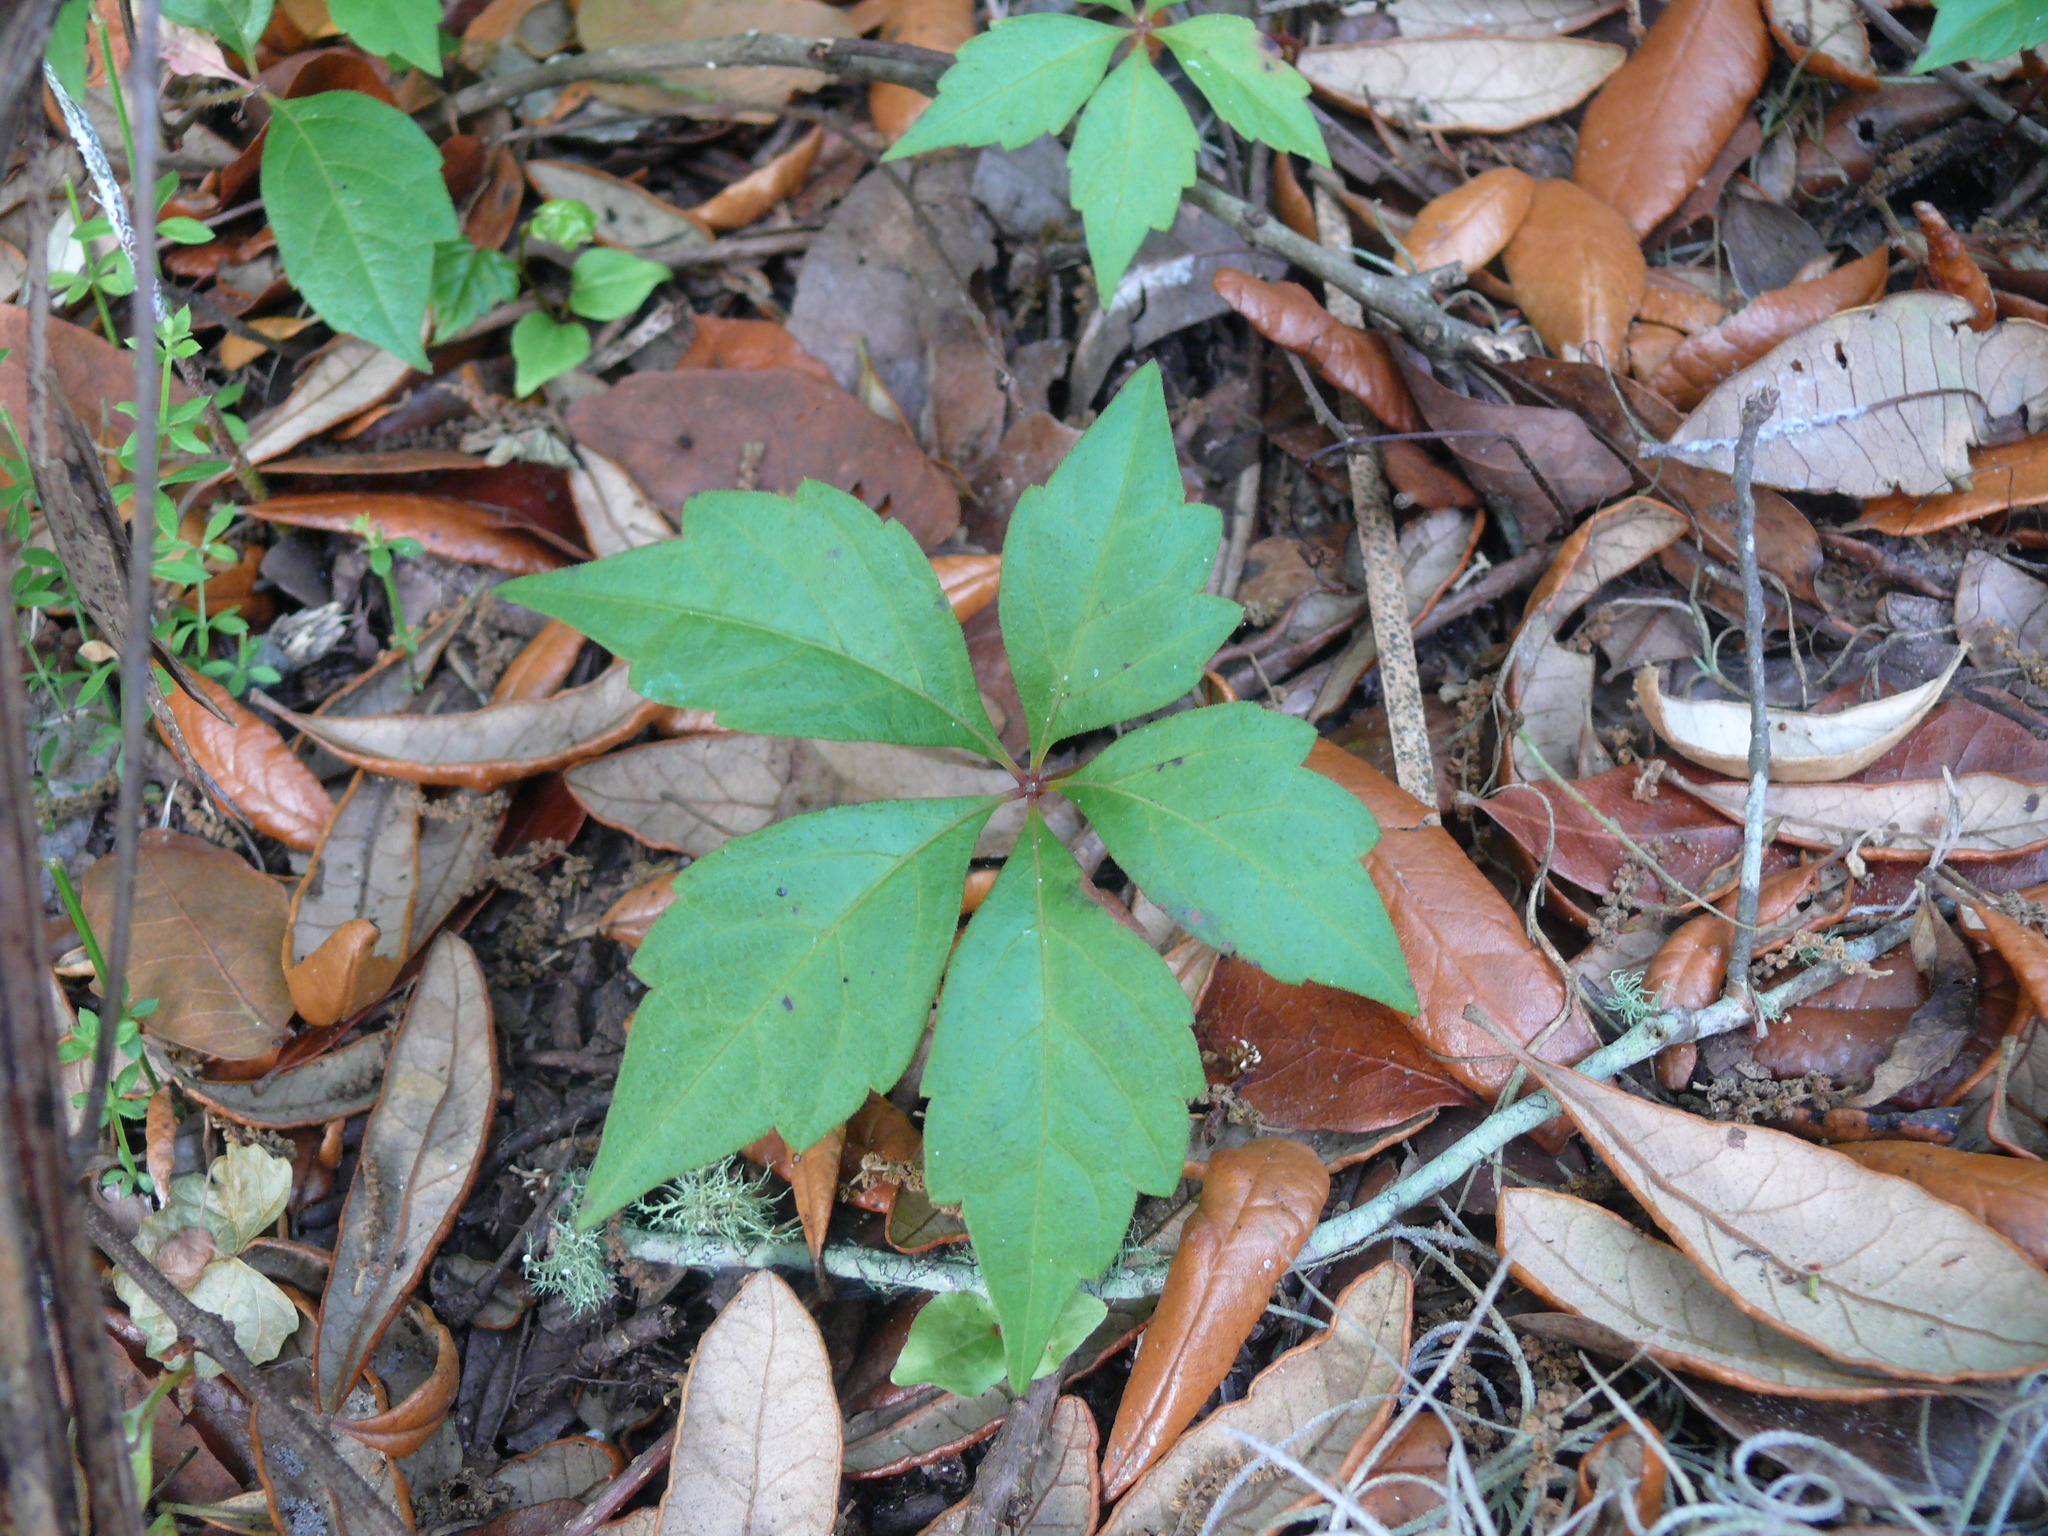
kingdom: Plantae
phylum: Tracheophyta
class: Magnoliopsida
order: Vitales
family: Vitaceae
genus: Parthenocissus
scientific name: Parthenocissus quinquefolia
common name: Virginia-creeper
